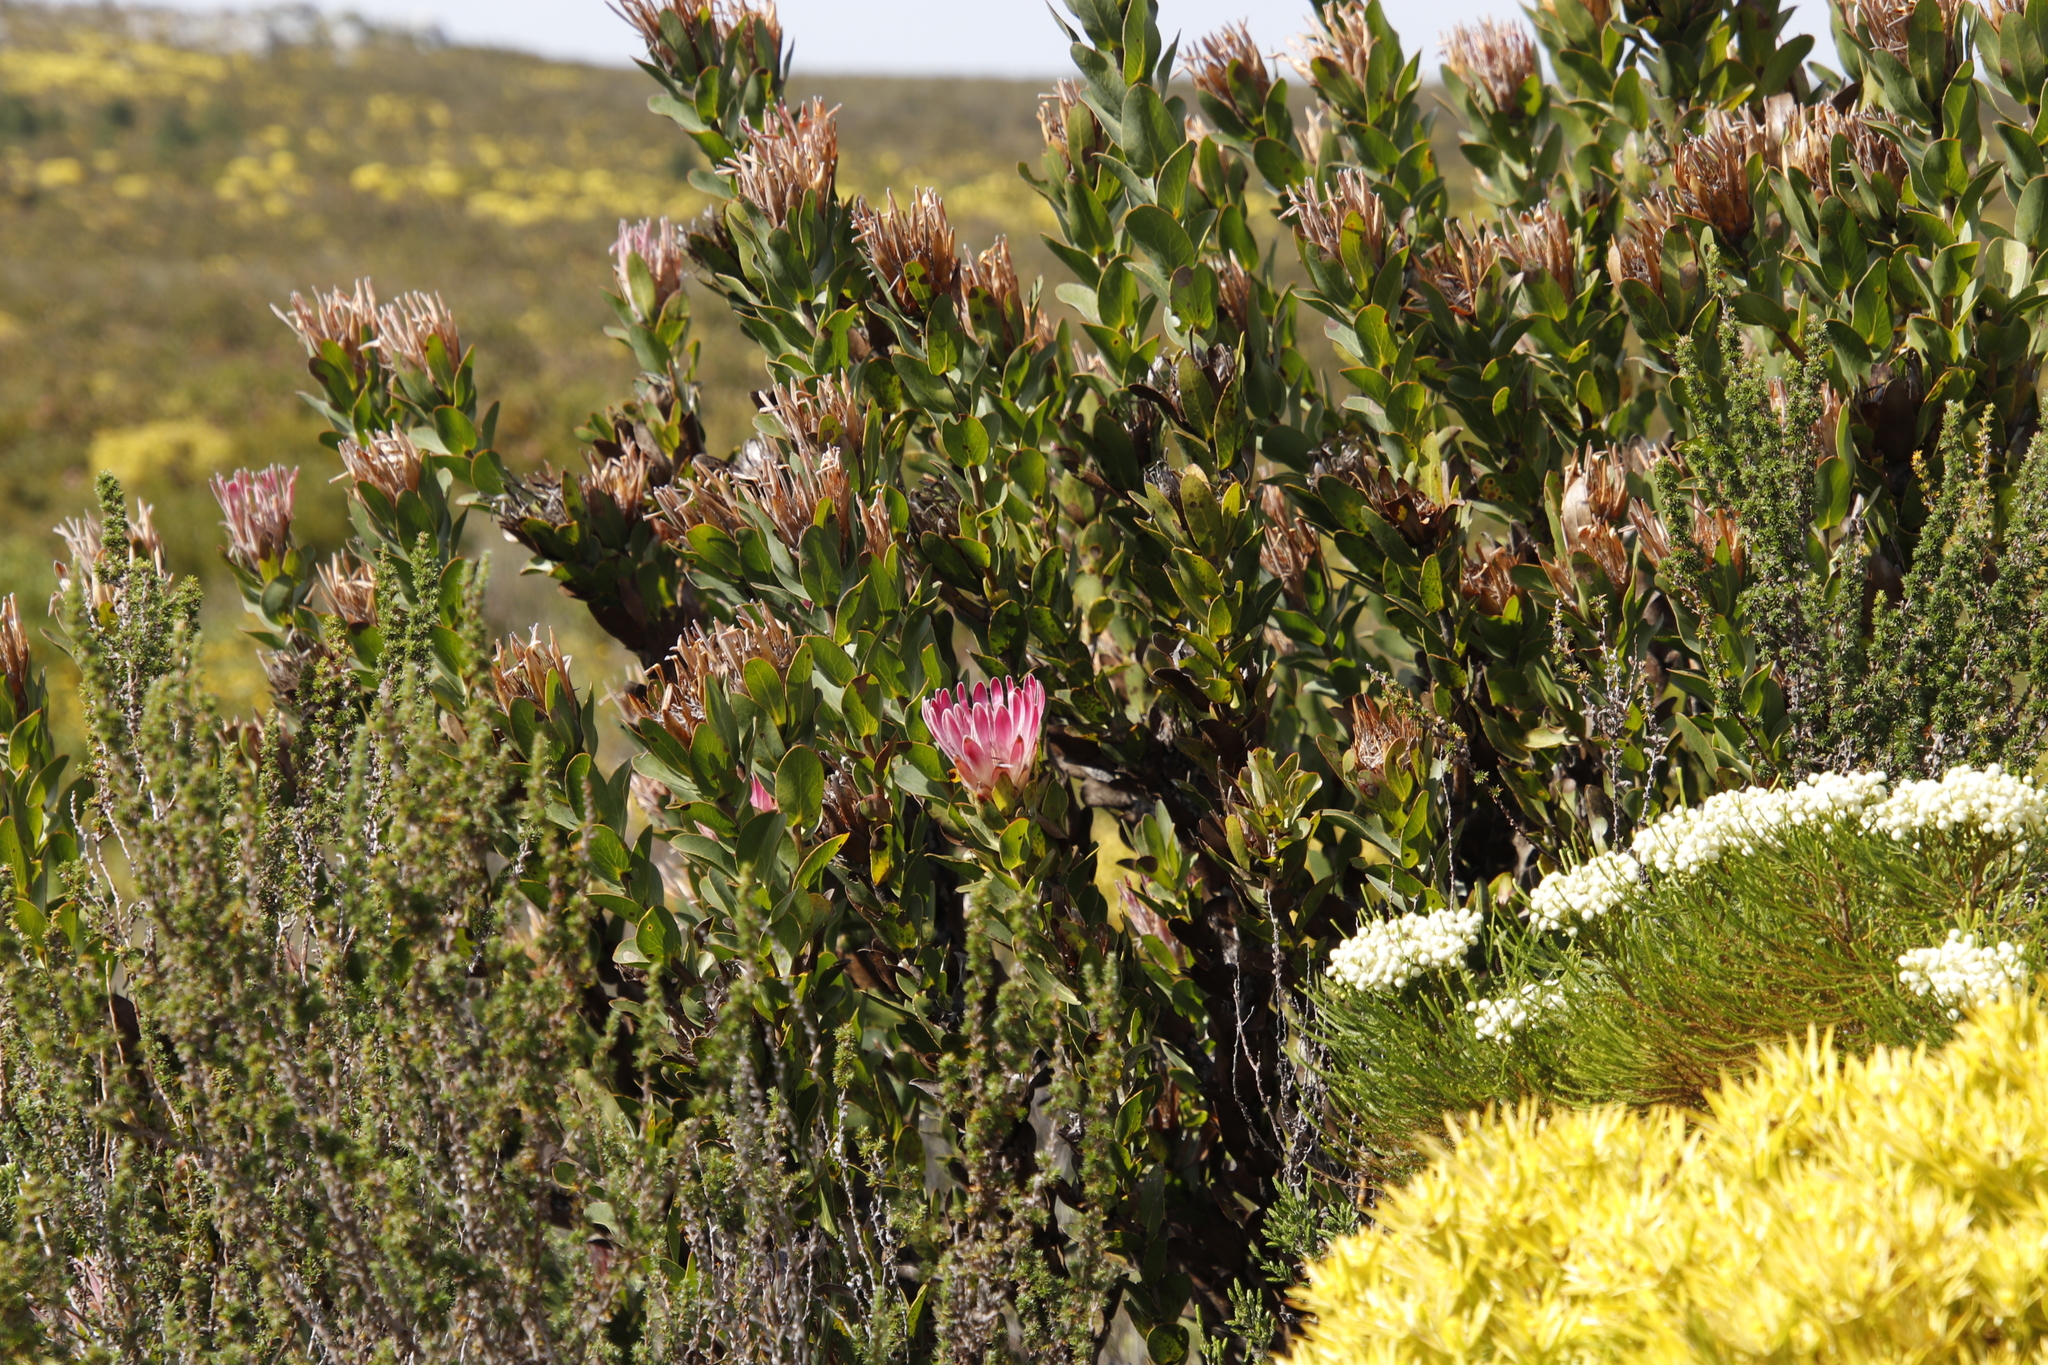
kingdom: Plantae
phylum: Tracheophyta
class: Magnoliopsida
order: Proteales
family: Proteaceae
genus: Protea
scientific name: Protea compacta
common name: Bot river protea
